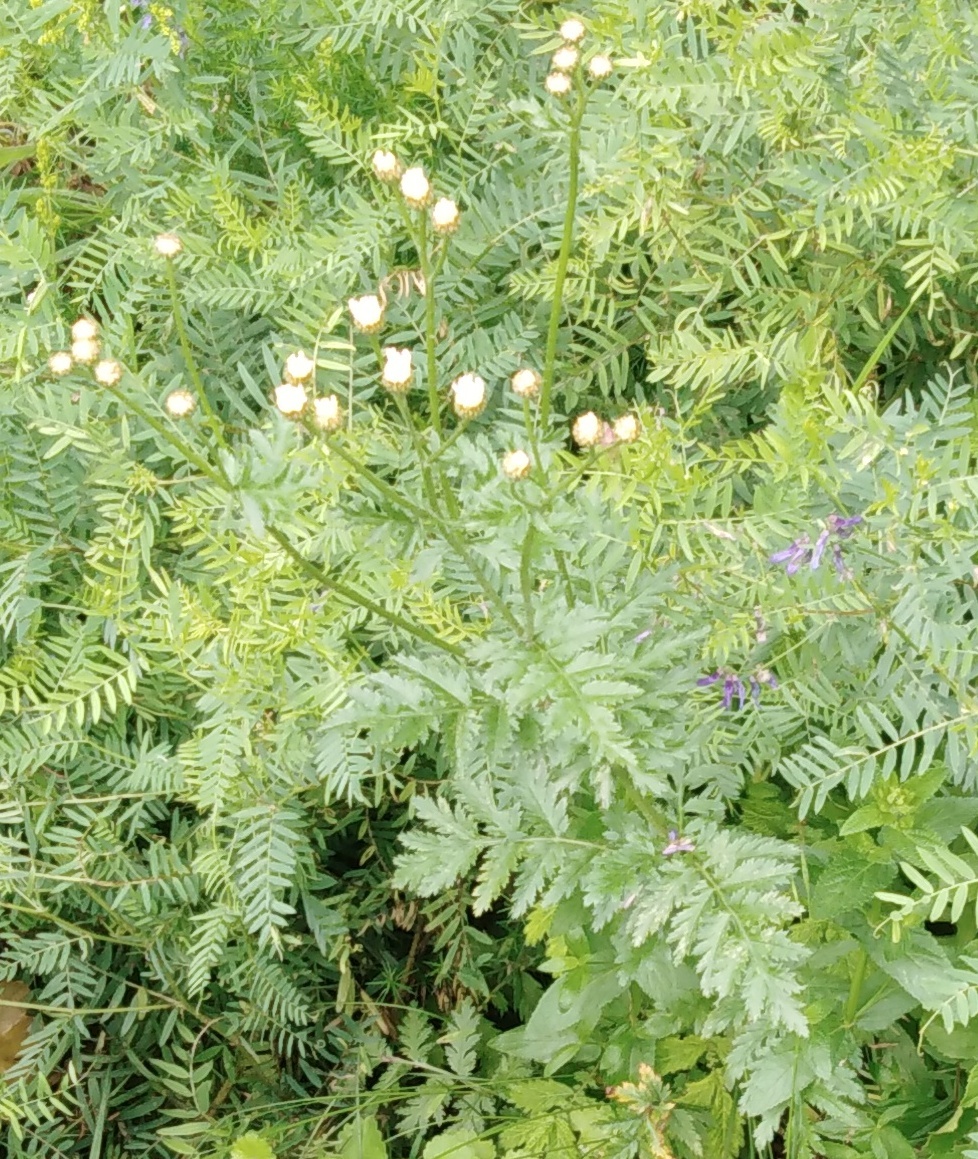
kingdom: Plantae
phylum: Tracheophyta
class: Magnoliopsida
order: Asterales
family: Asteraceae
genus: Tanacetum
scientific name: Tanacetum corymbosum
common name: Scentless feverfew
